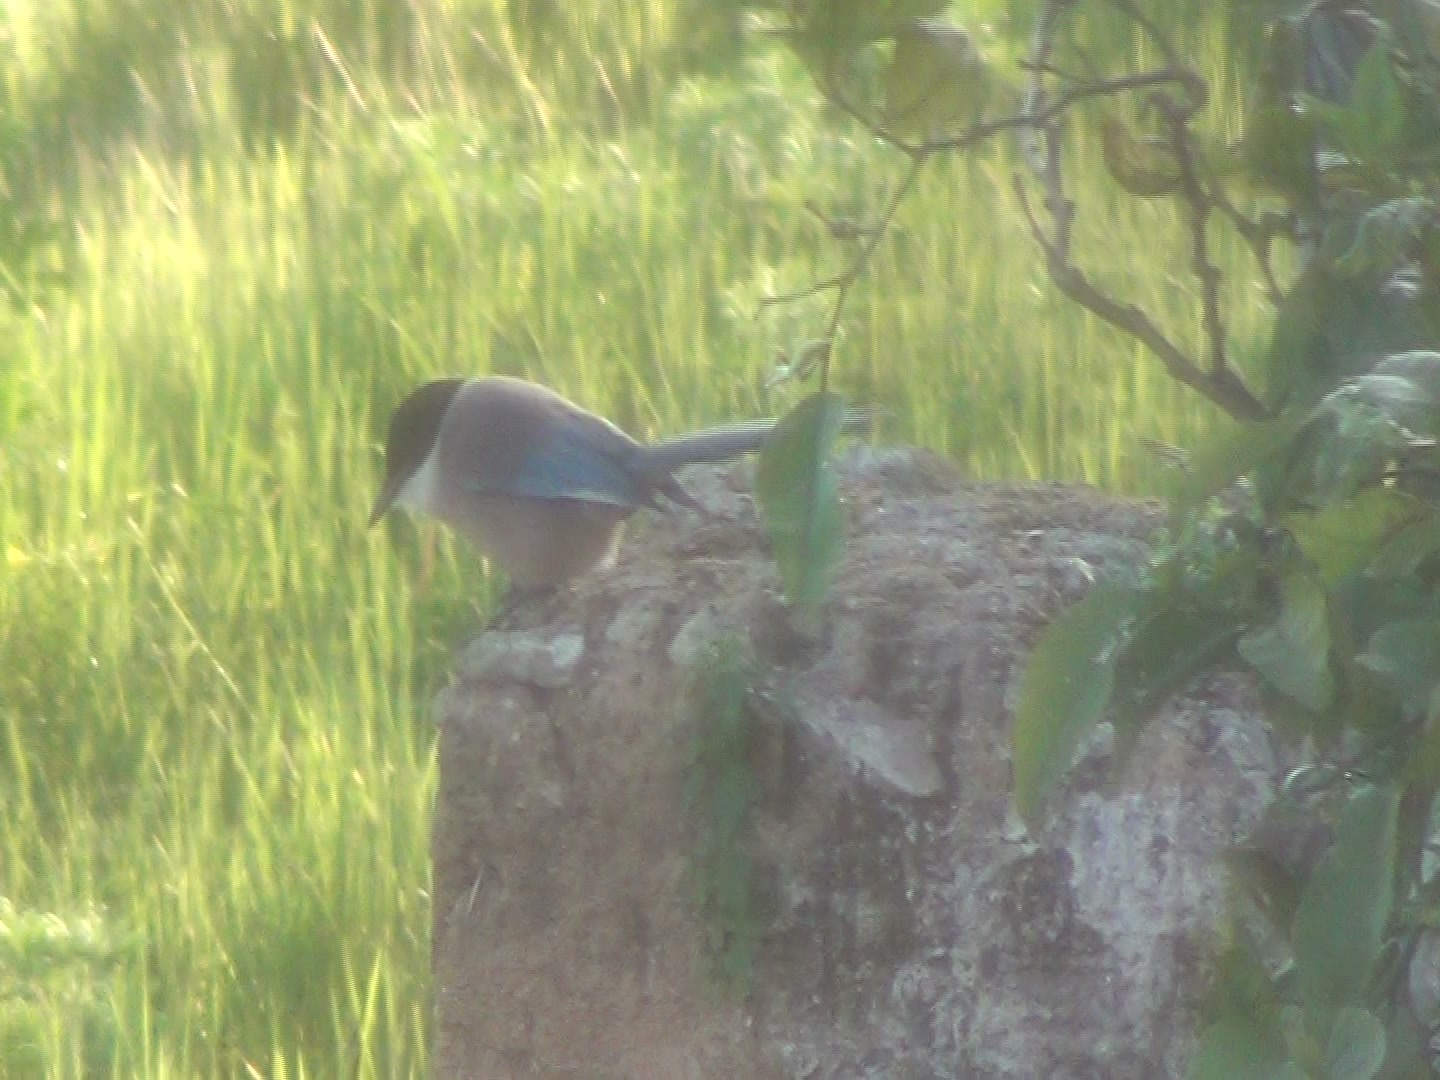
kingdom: Animalia
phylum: Chordata
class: Aves
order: Passeriformes
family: Corvidae
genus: Cyanopica
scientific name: Cyanopica cooki
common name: Iberian magpie
